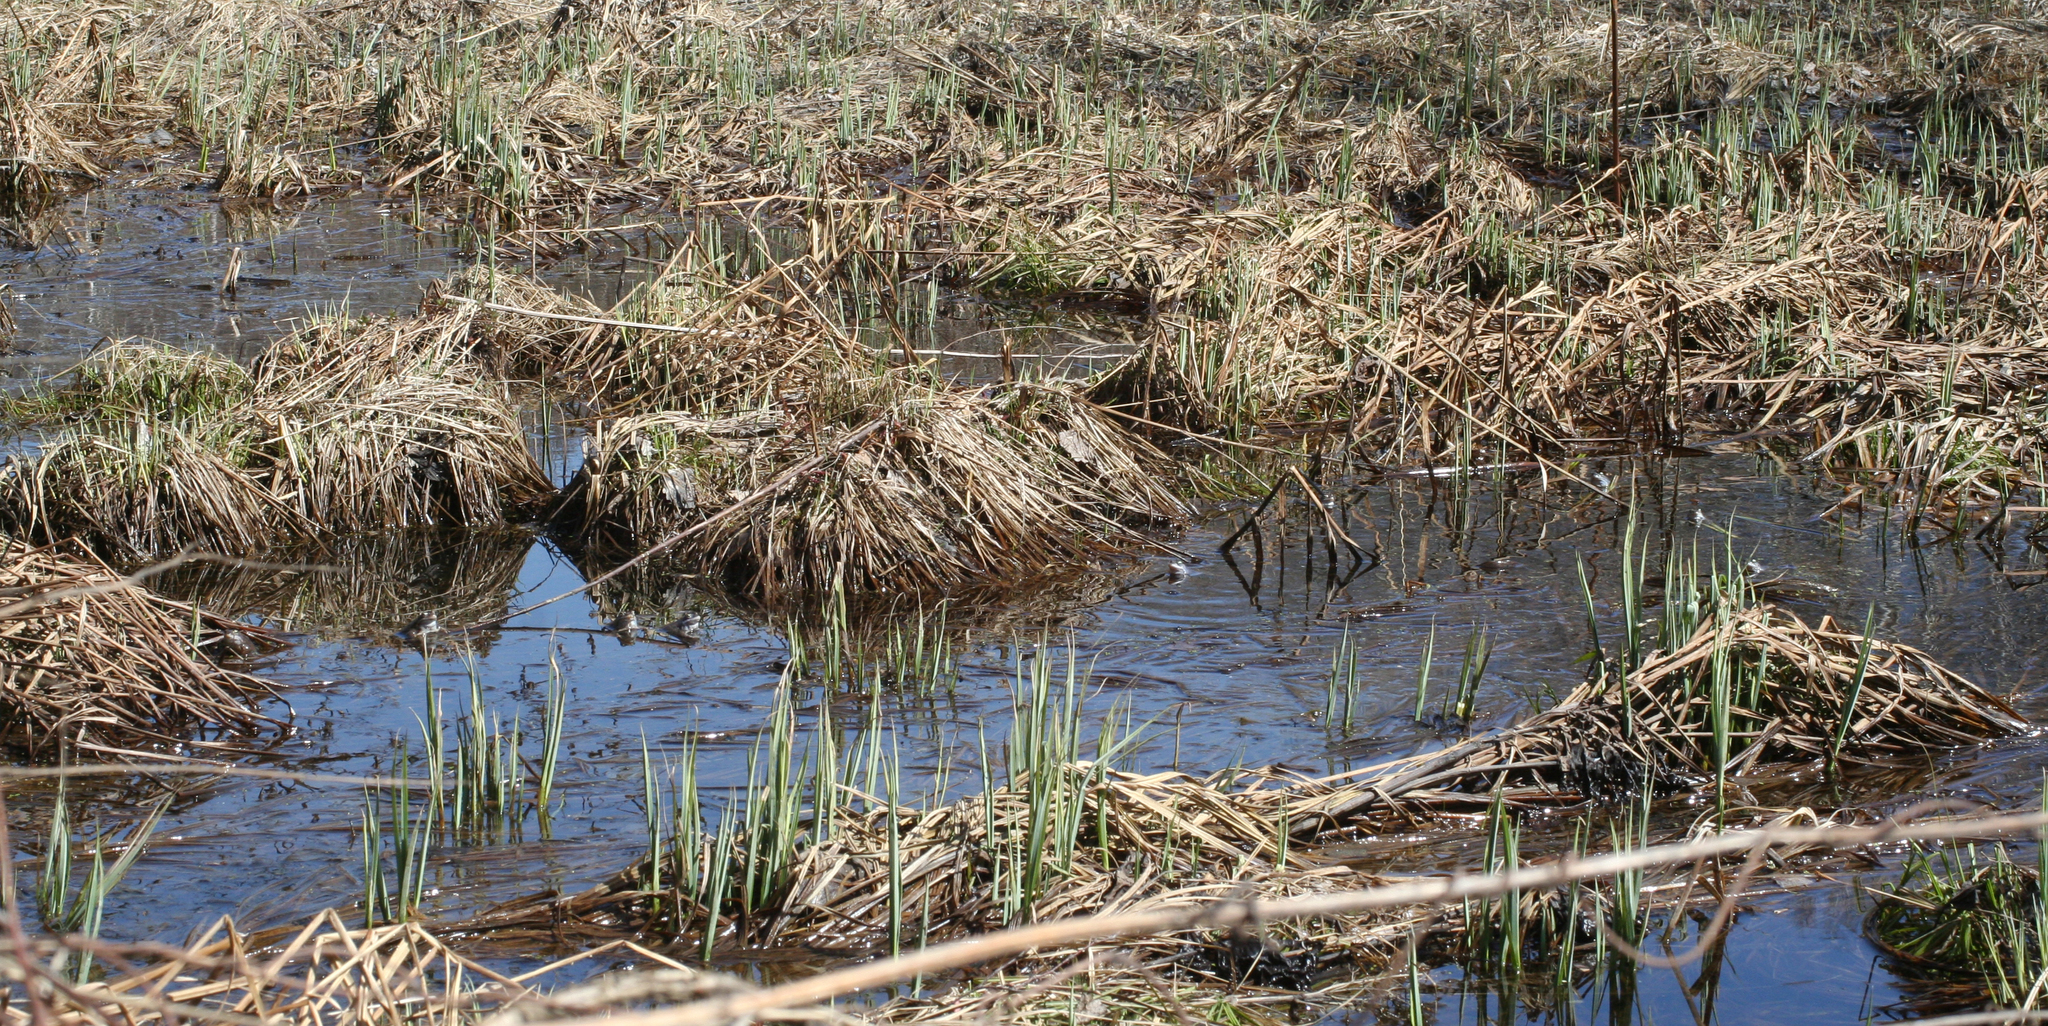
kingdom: Animalia
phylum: Chordata
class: Amphibia
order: Anura
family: Ranidae
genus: Rana
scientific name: Rana arvalis
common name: Moor frog
